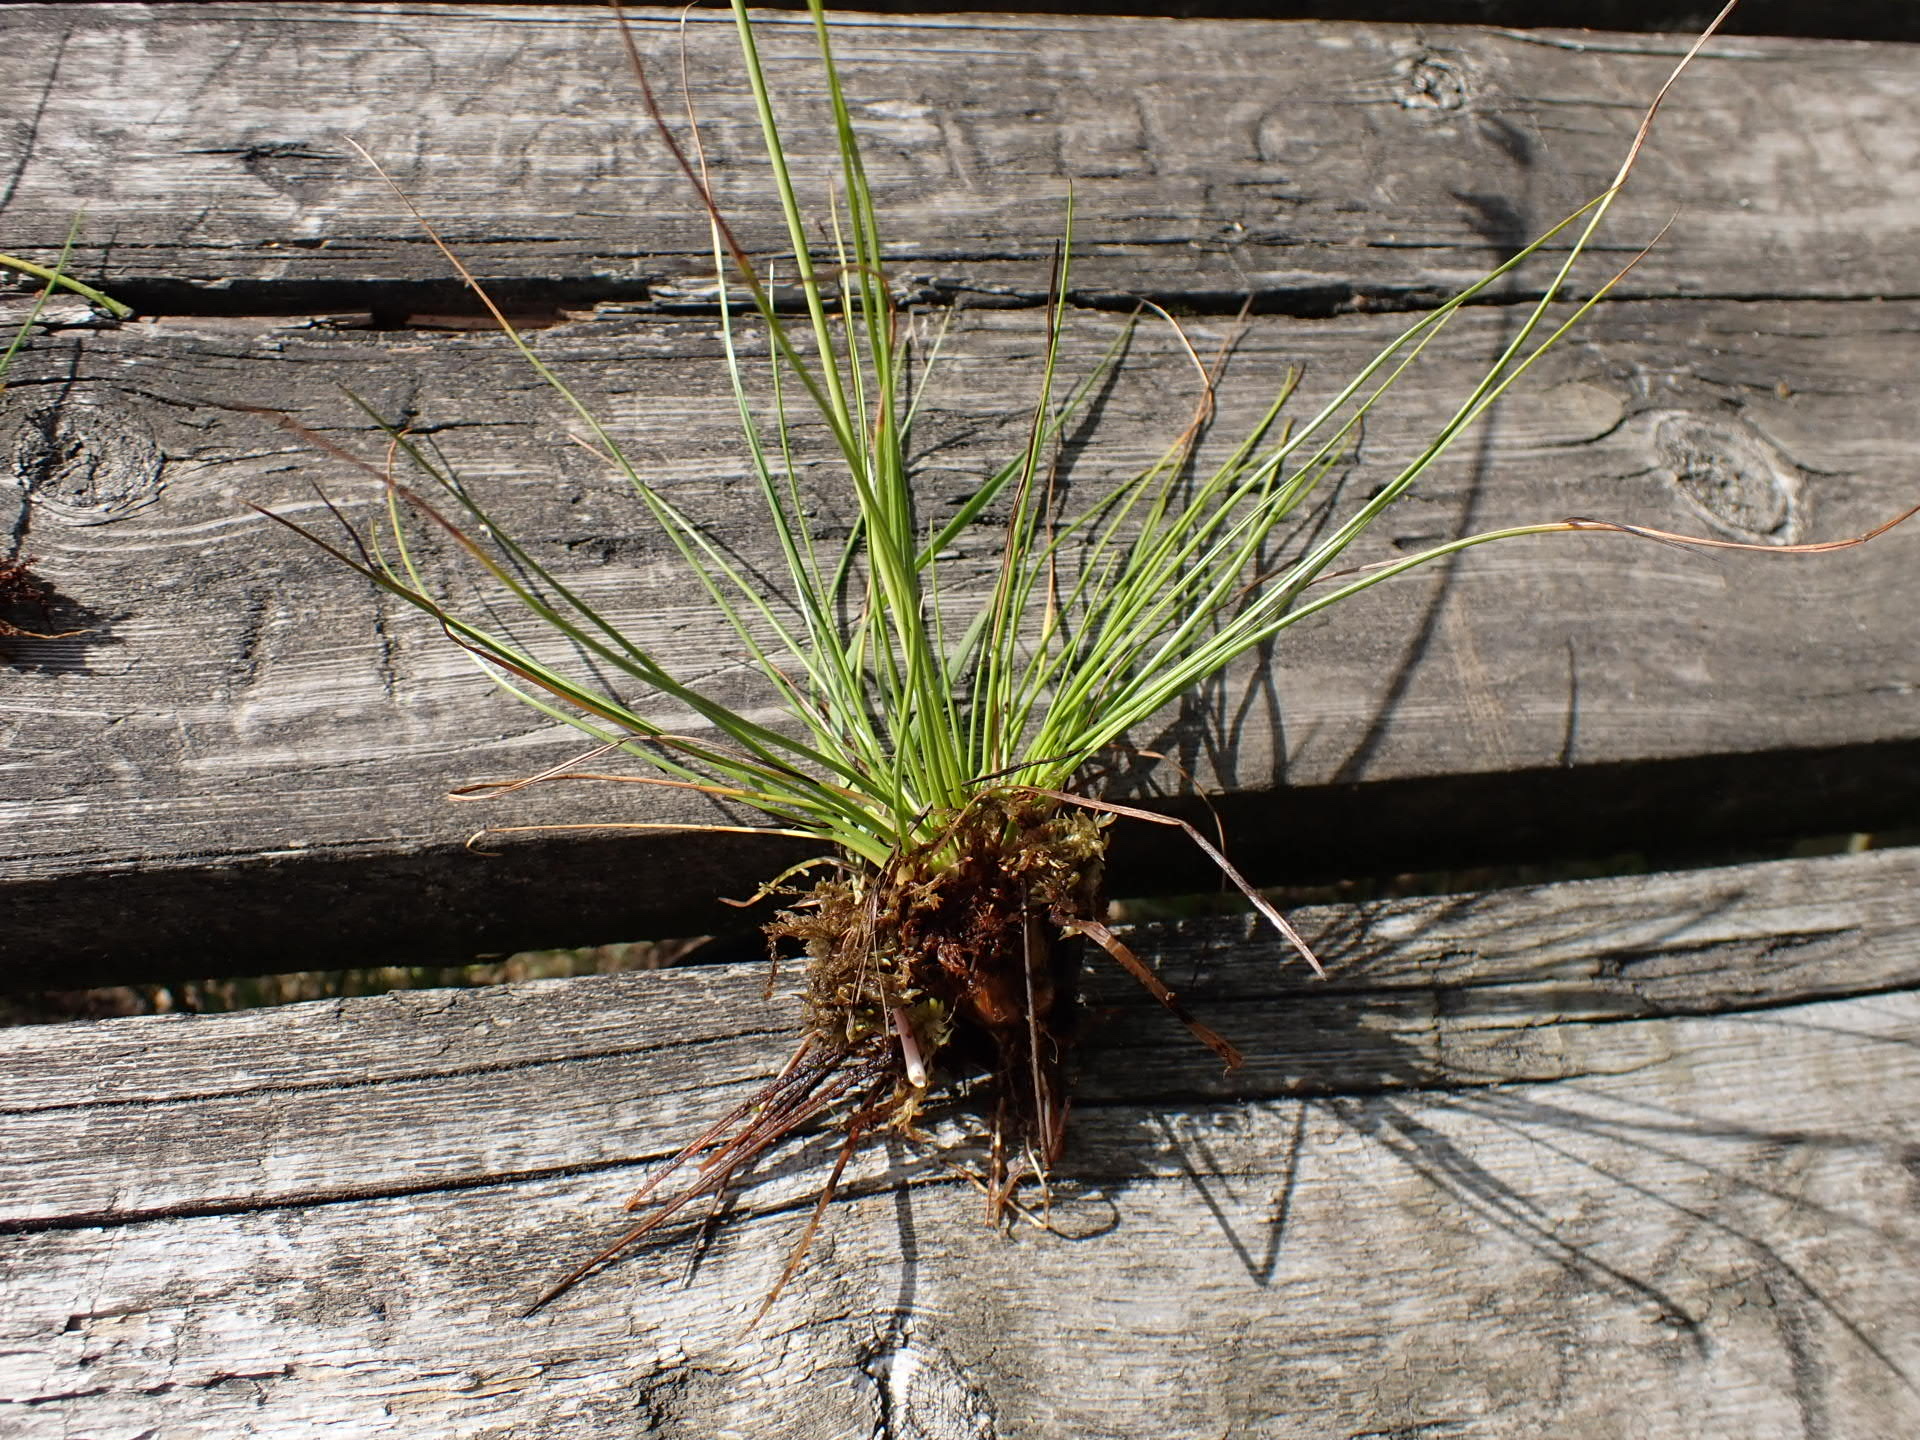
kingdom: Plantae
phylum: Tracheophyta
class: Liliopsida
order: Poales
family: Juncaceae
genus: Juncus
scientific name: Juncus squarrosus
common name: Heath rush
